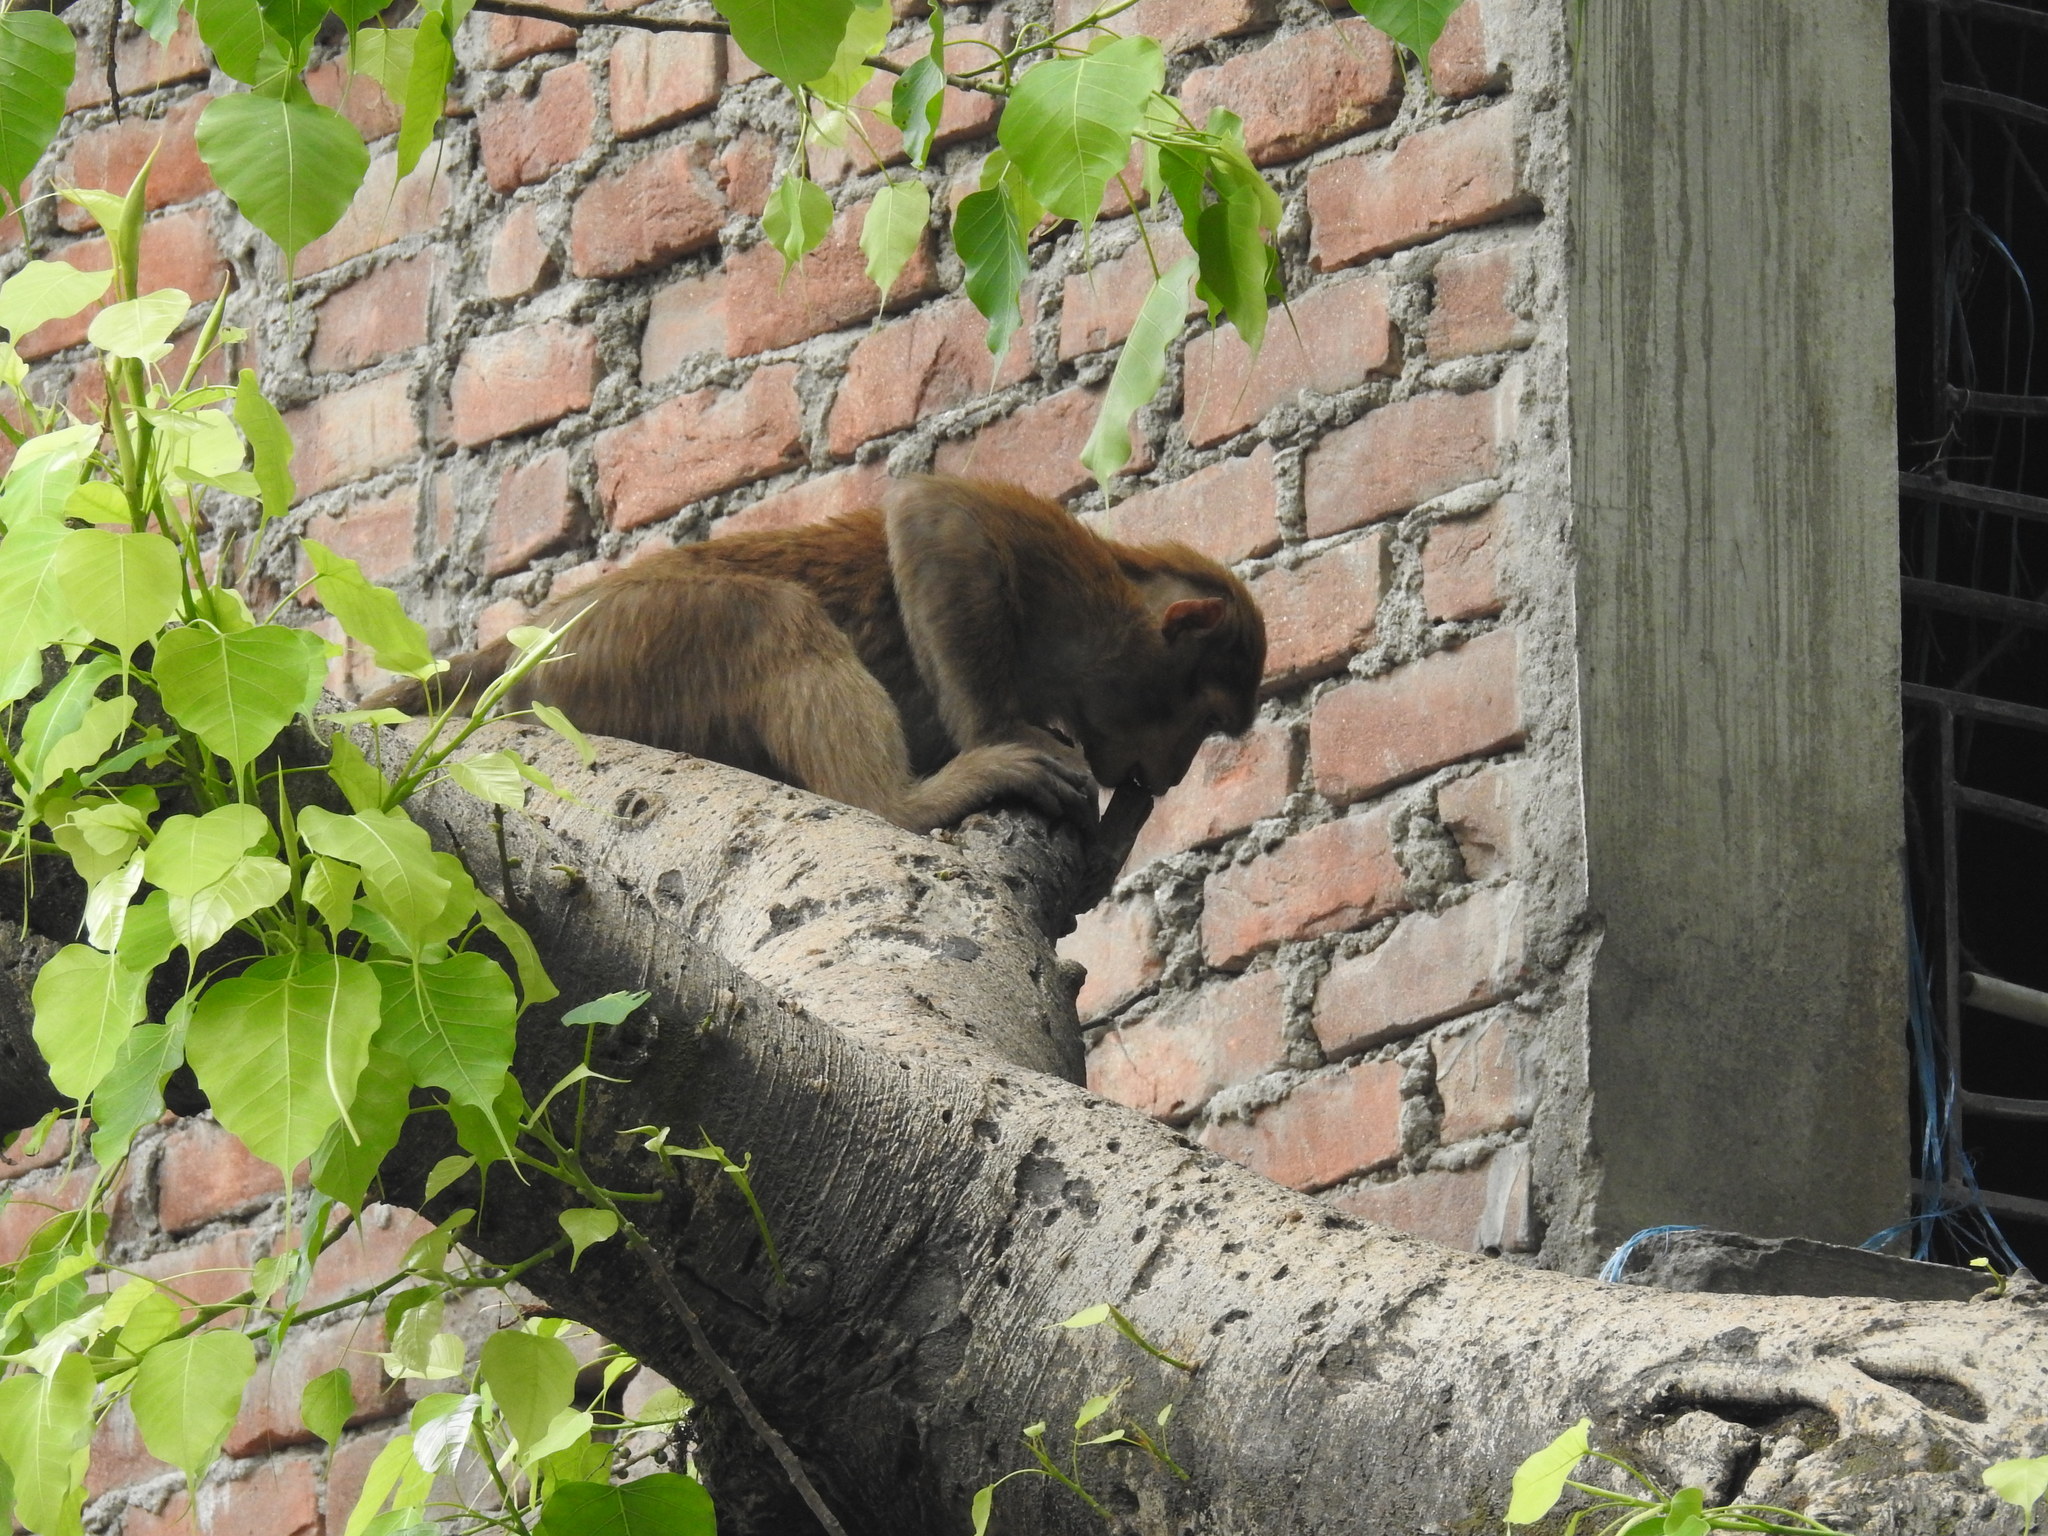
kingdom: Animalia
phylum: Chordata
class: Mammalia
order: Primates
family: Cercopithecidae
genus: Macaca
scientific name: Macaca assamensis
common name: Assam macaque
